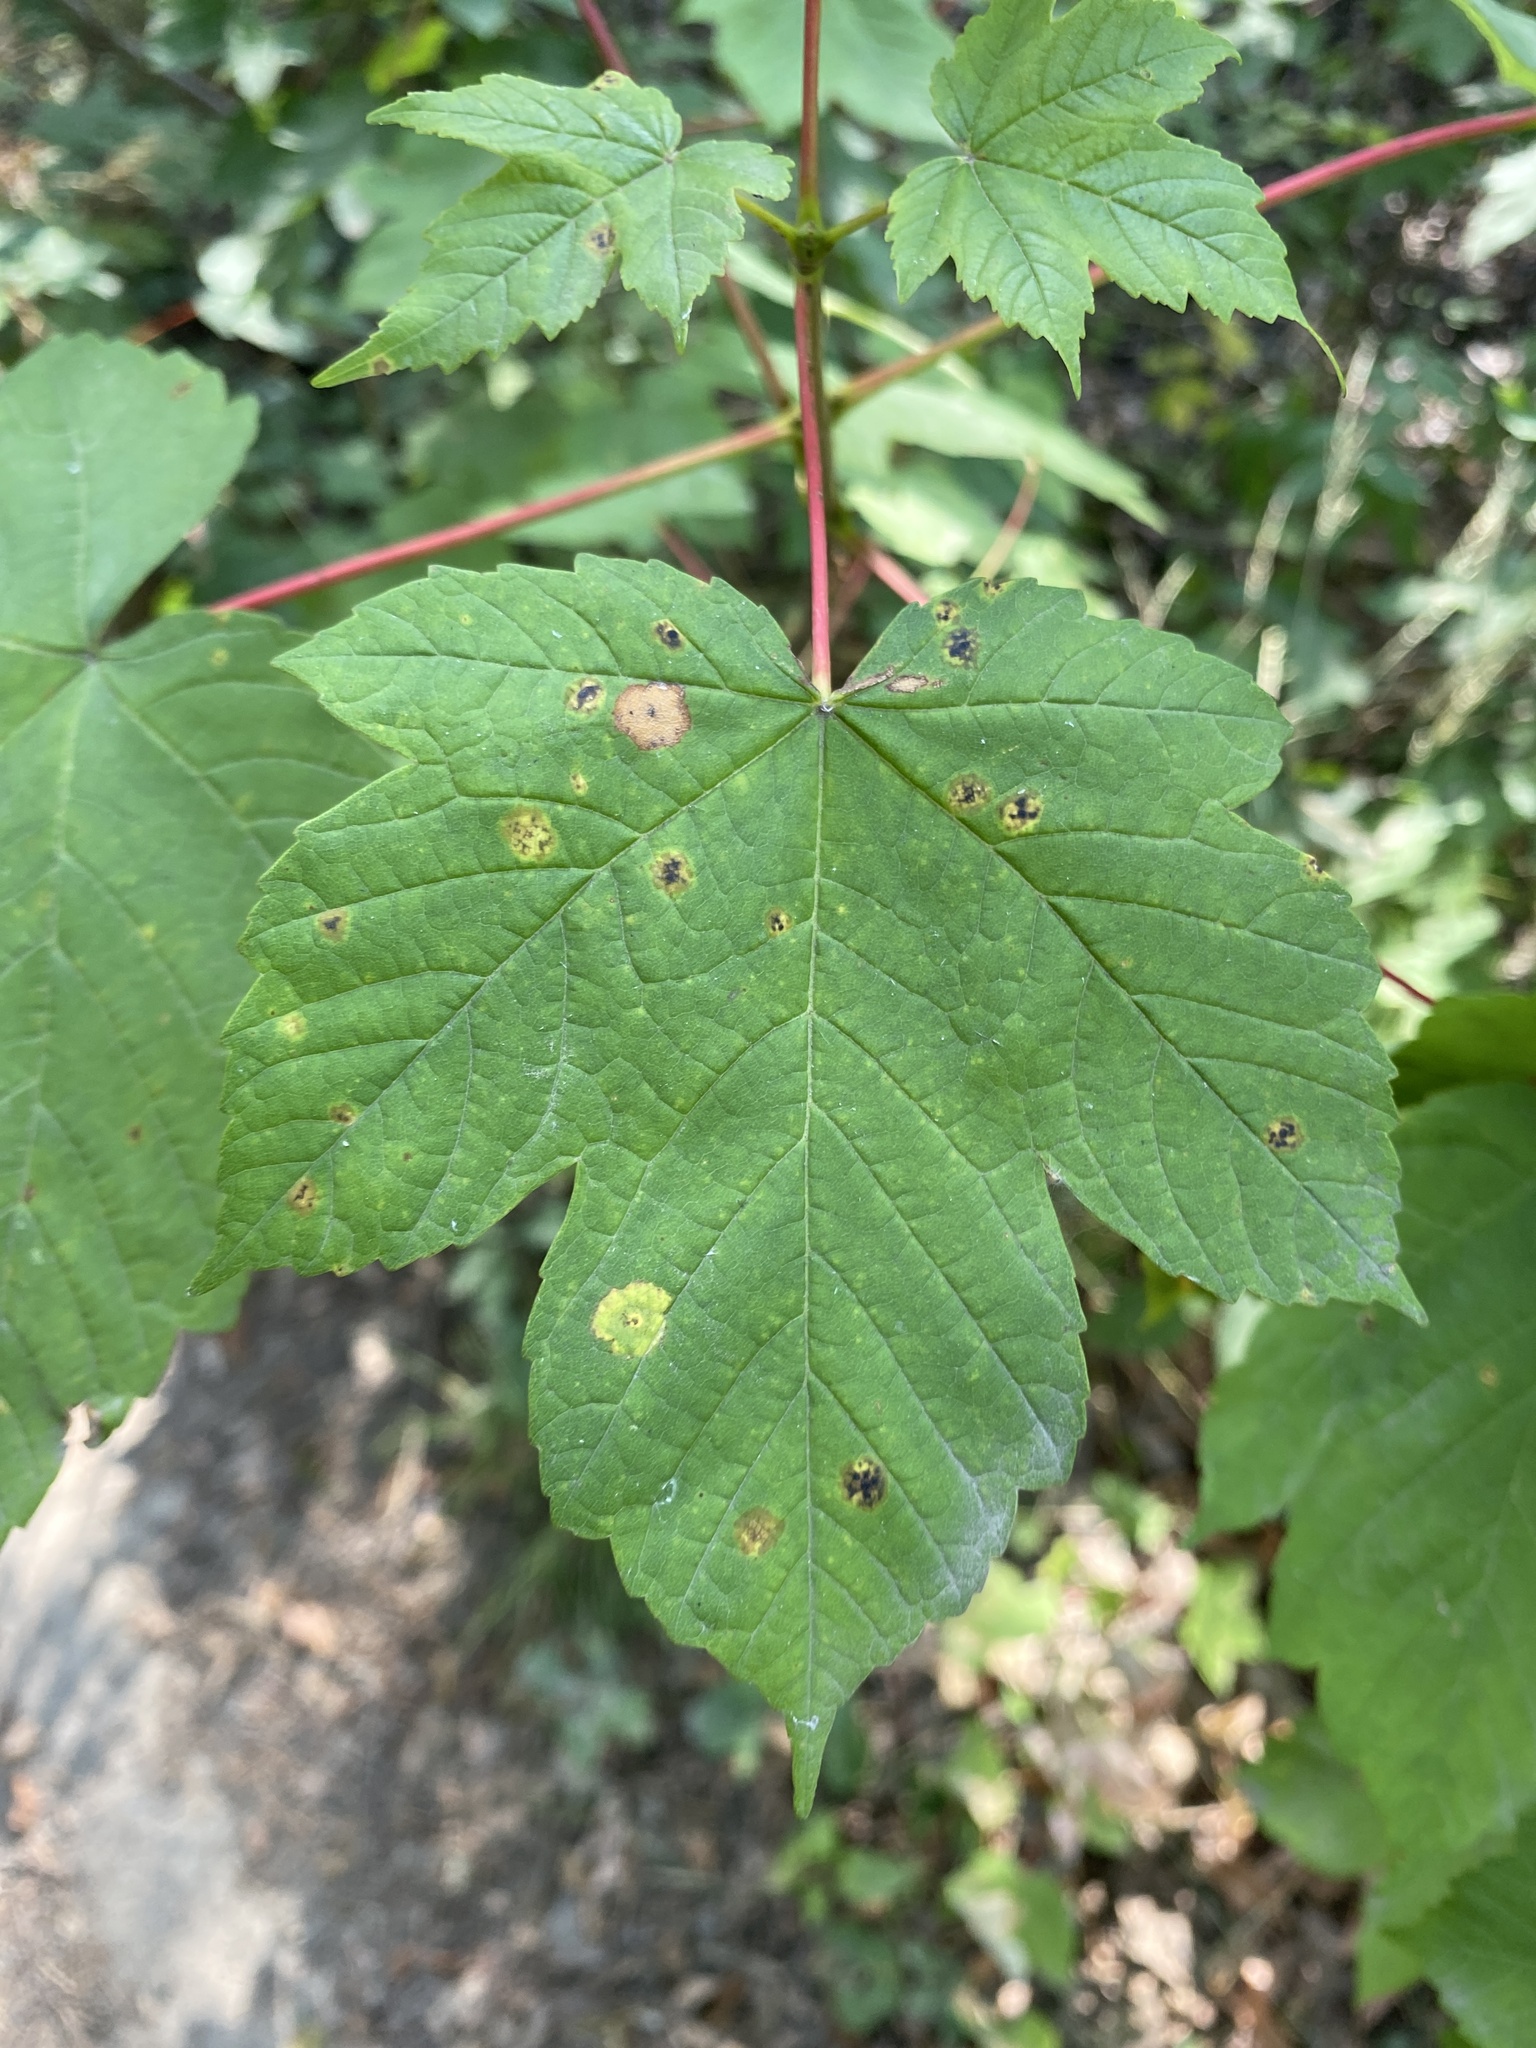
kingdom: Plantae
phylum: Tracheophyta
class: Magnoliopsida
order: Sapindales
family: Sapindaceae
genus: Acer
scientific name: Acer pseudoplatanus
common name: Sycamore
